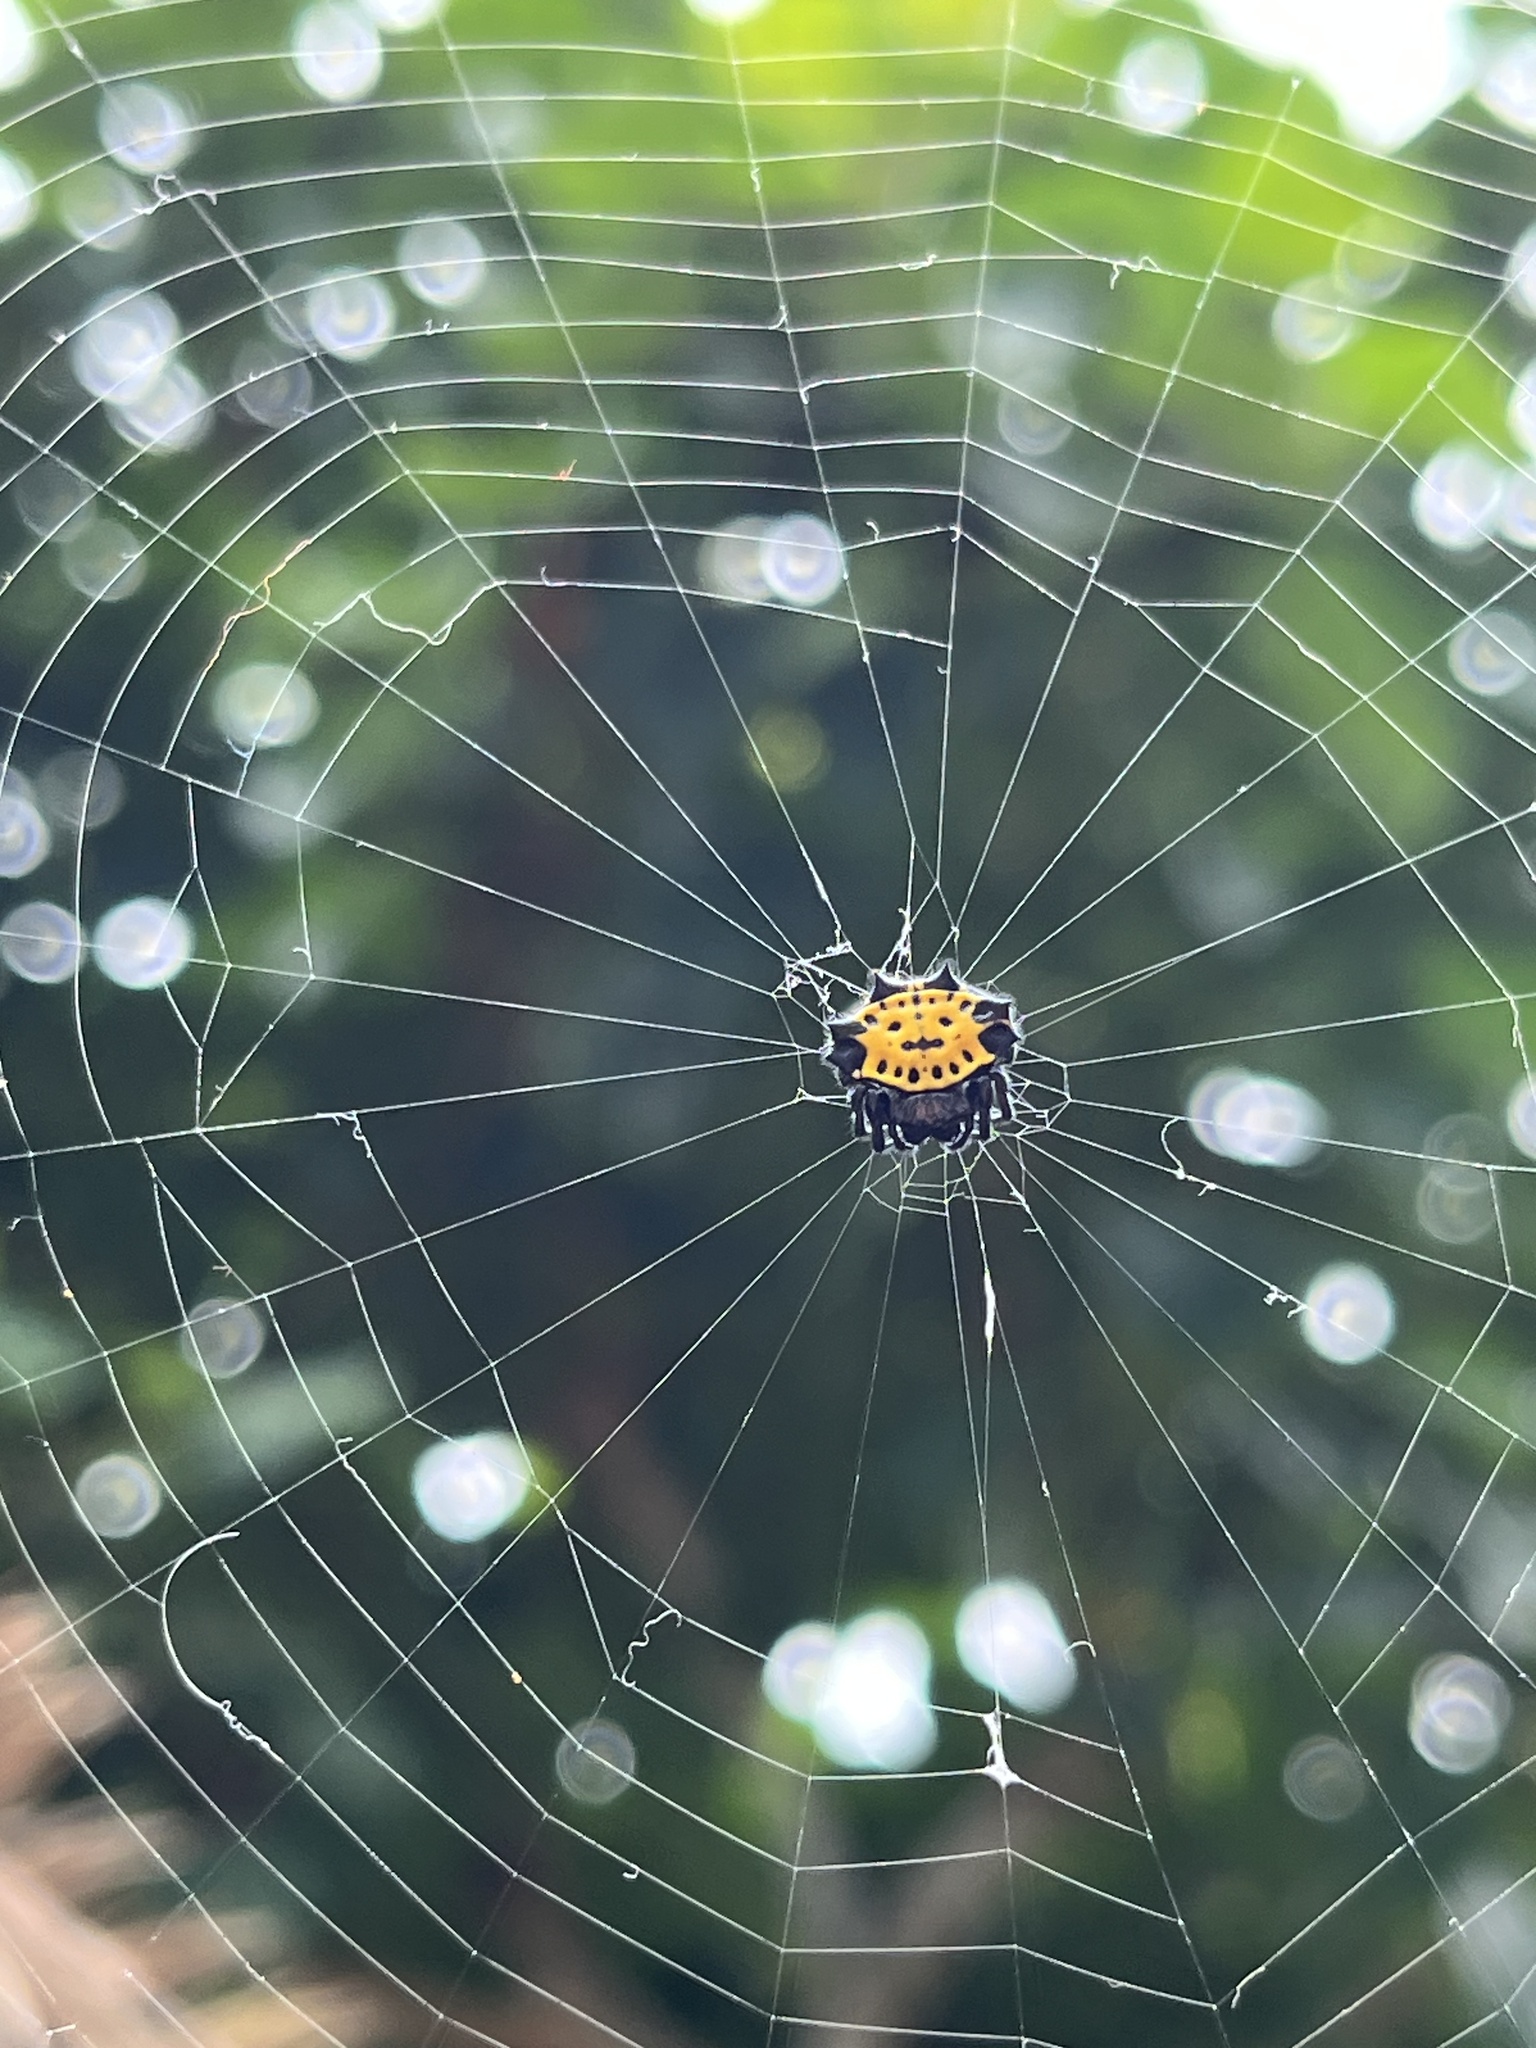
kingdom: Animalia
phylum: Arthropoda
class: Arachnida
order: Araneae
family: Araneidae
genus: Gasteracantha
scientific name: Gasteracantha cancriformis
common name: Orb weavers
